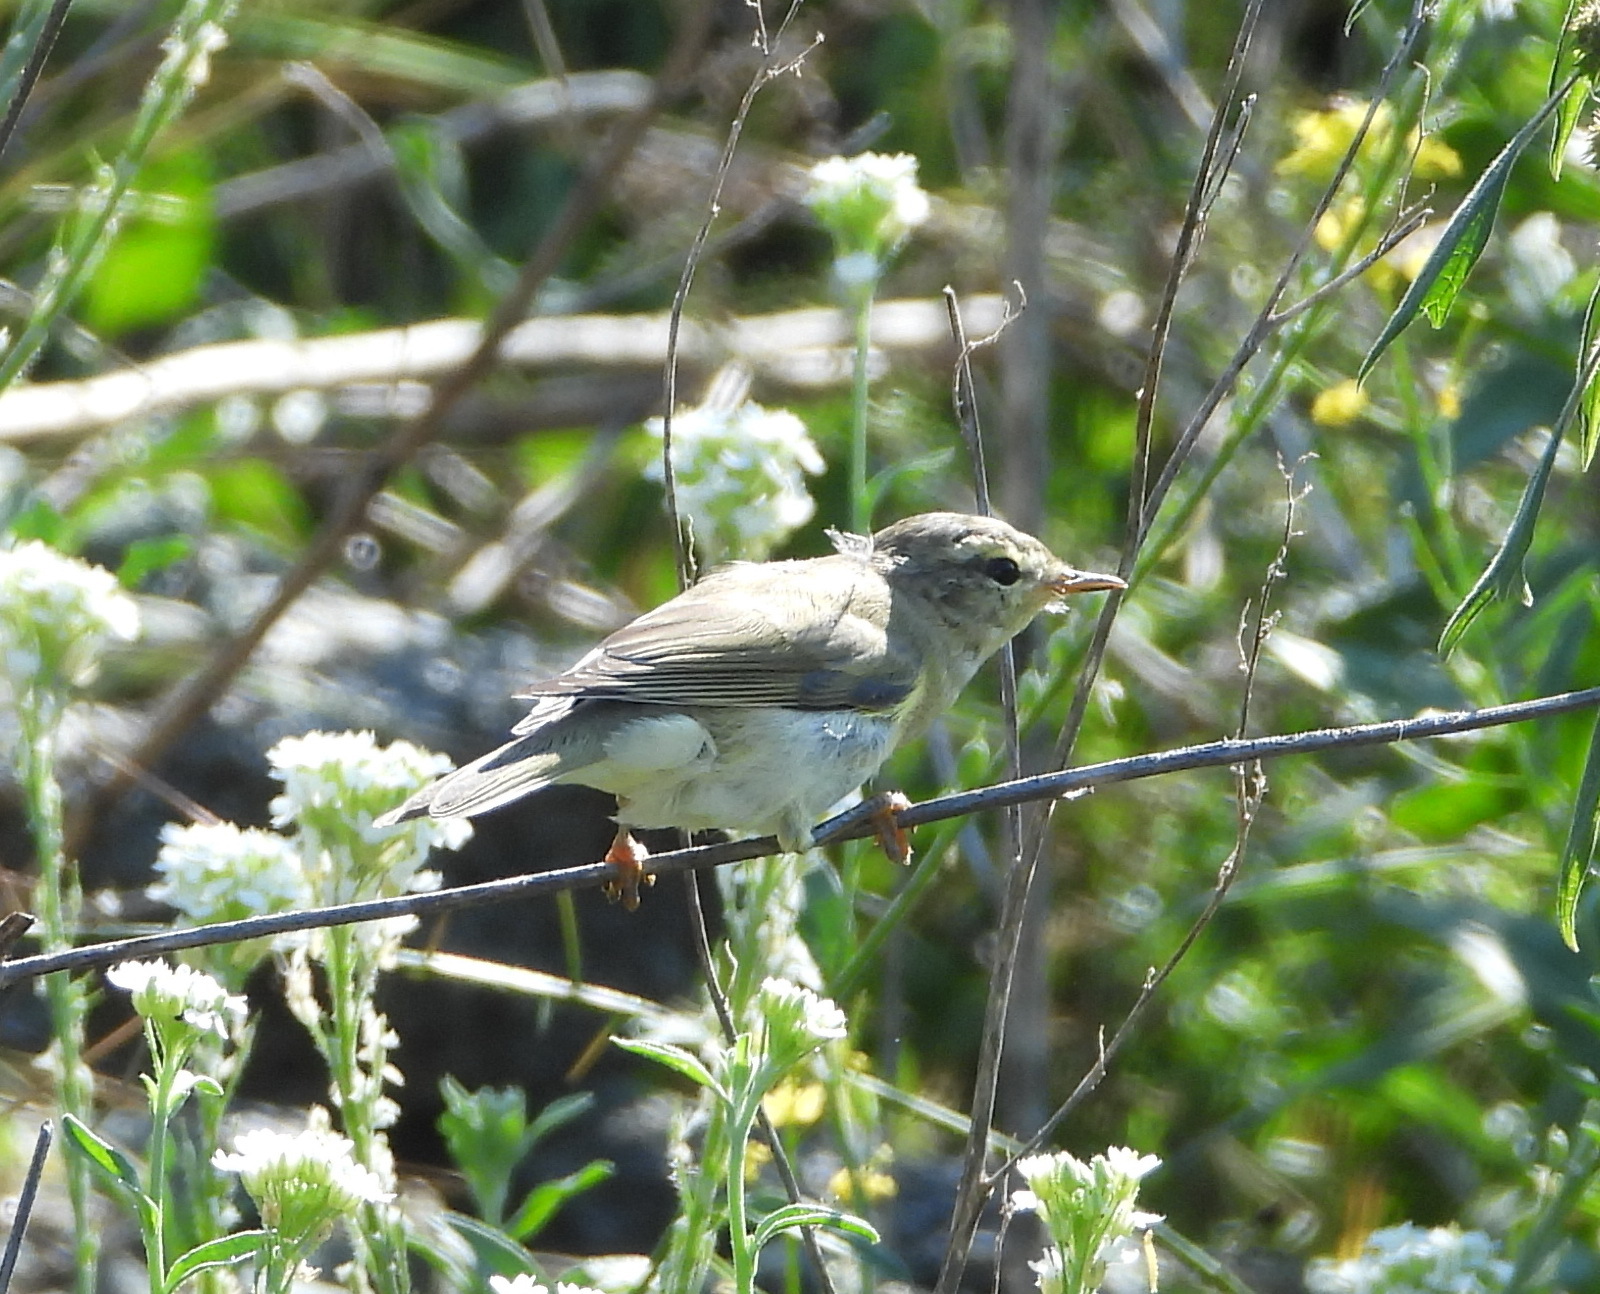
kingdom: Animalia
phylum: Chordata
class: Aves
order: Passeriformes
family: Phylloscopidae
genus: Phylloscopus
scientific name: Phylloscopus trochilus
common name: Willow warbler
